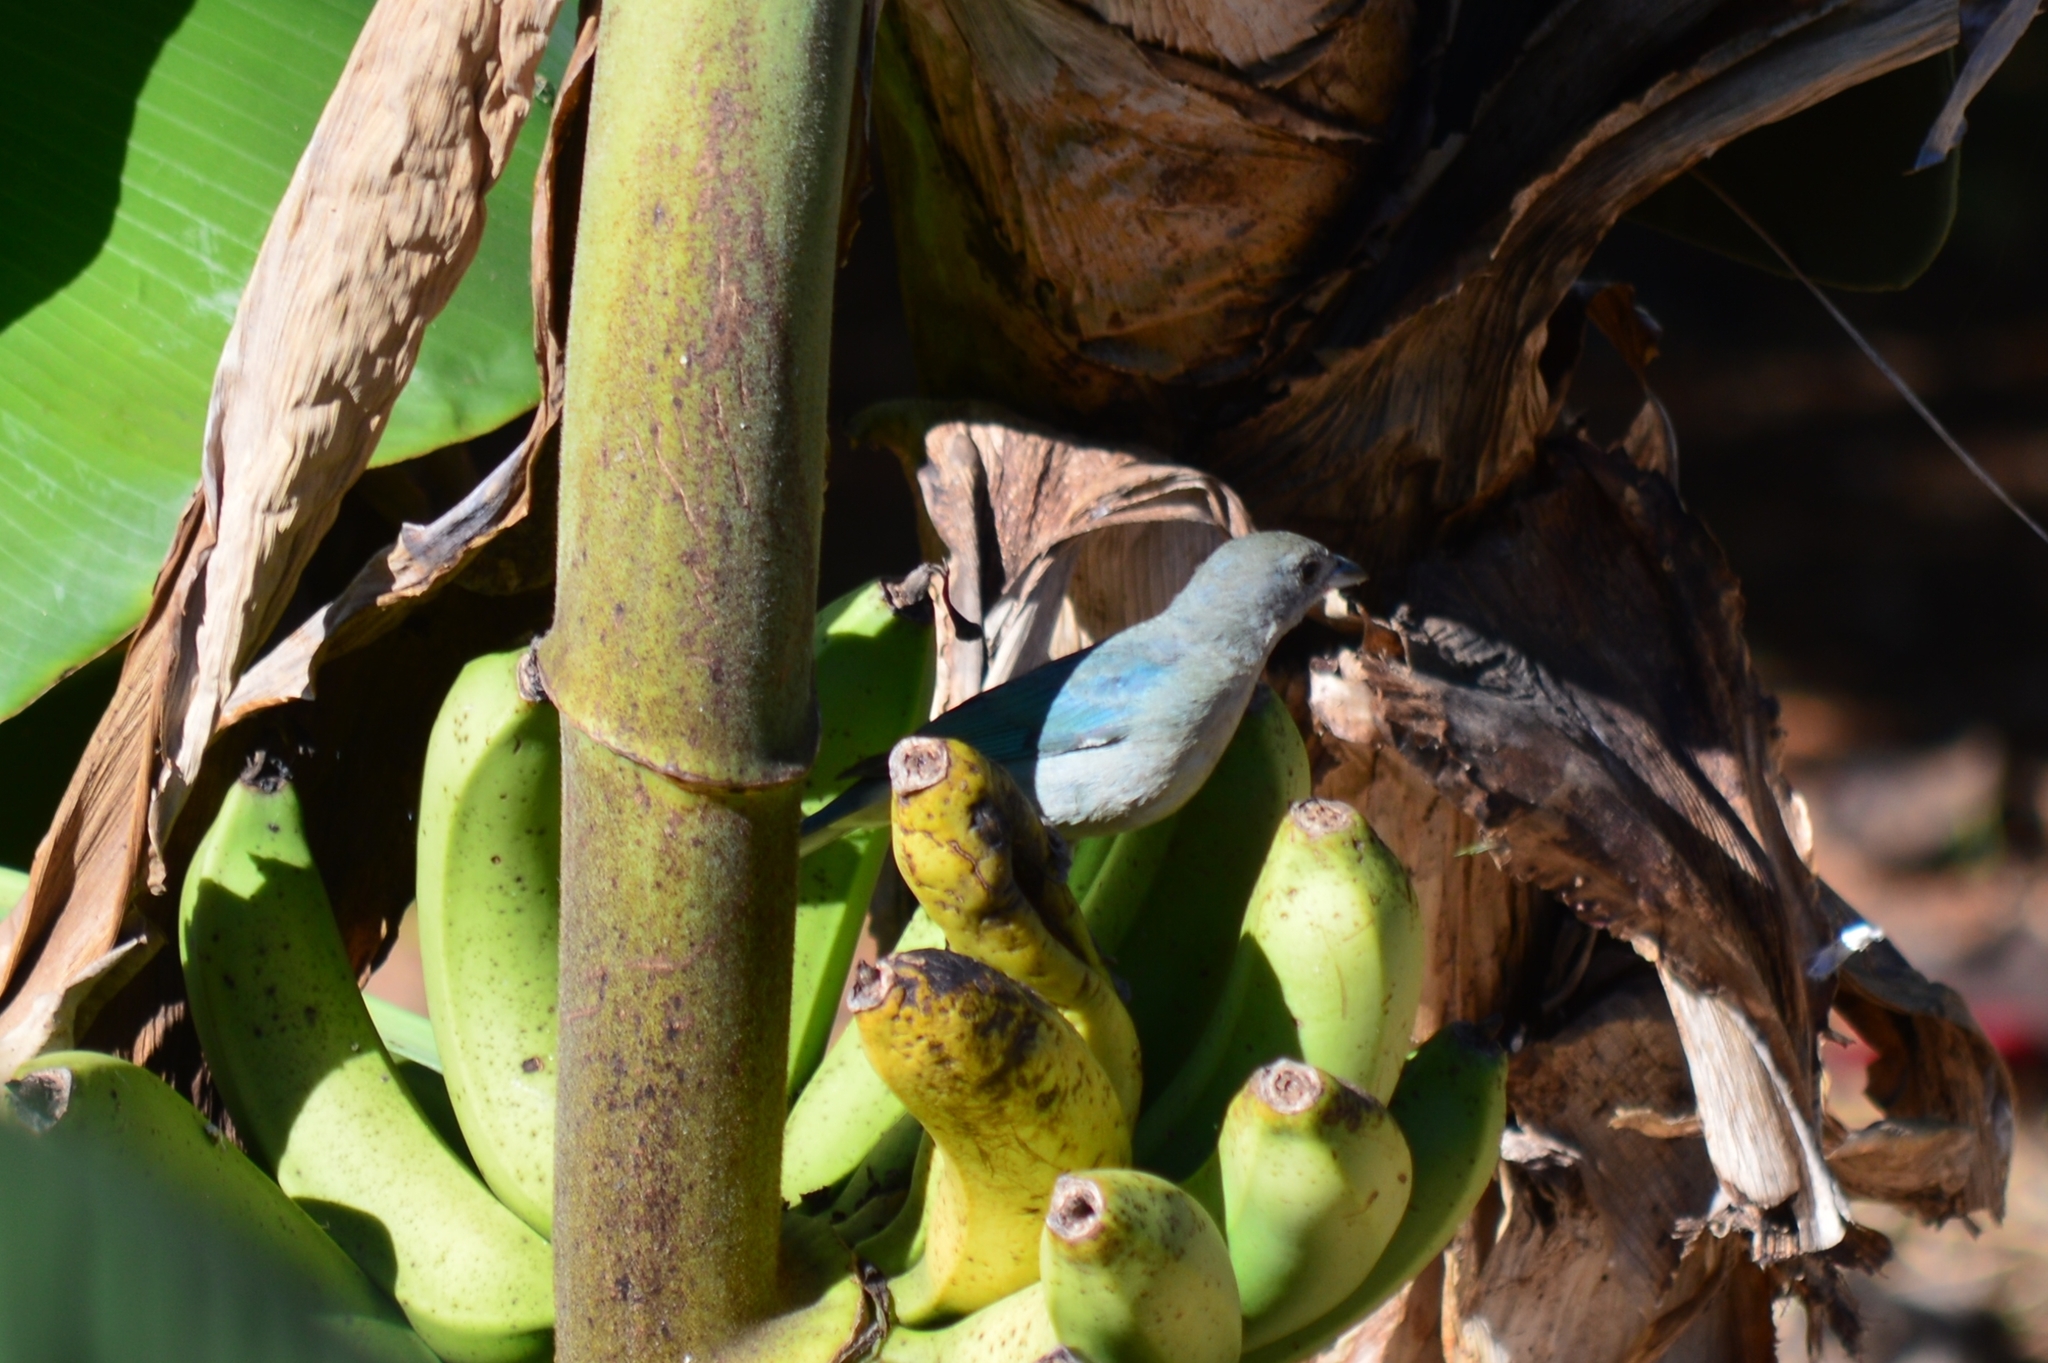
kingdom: Animalia
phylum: Chordata
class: Aves
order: Passeriformes
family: Thraupidae
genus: Thraupis
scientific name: Thraupis sayaca
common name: Sayaca tanager
